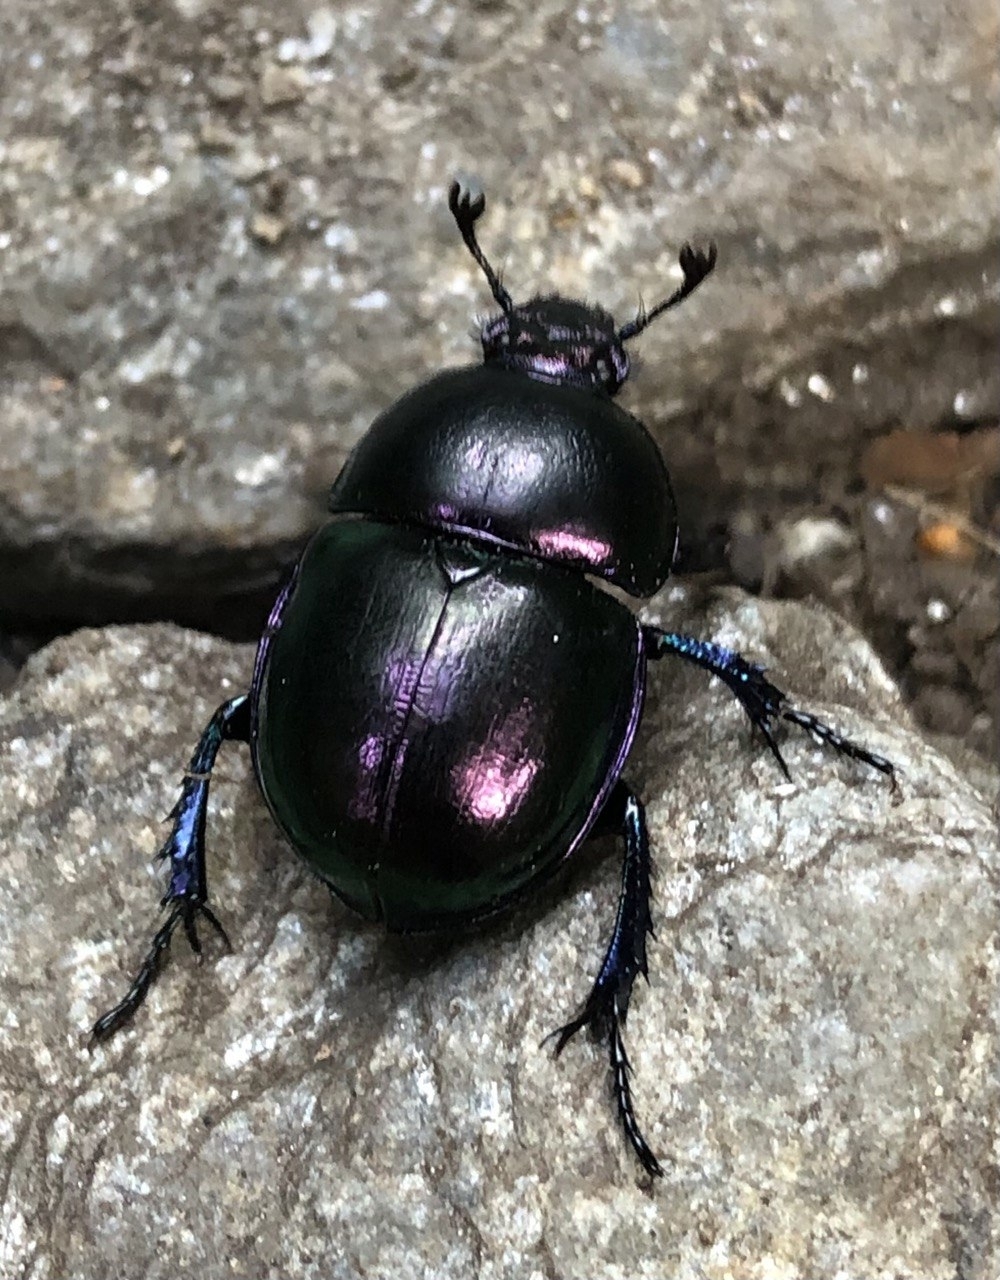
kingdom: Animalia
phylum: Arthropoda
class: Insecta
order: Coleoptera
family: Geotrupidae
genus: Trypocopris
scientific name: Trypocopris pyrenaeus
